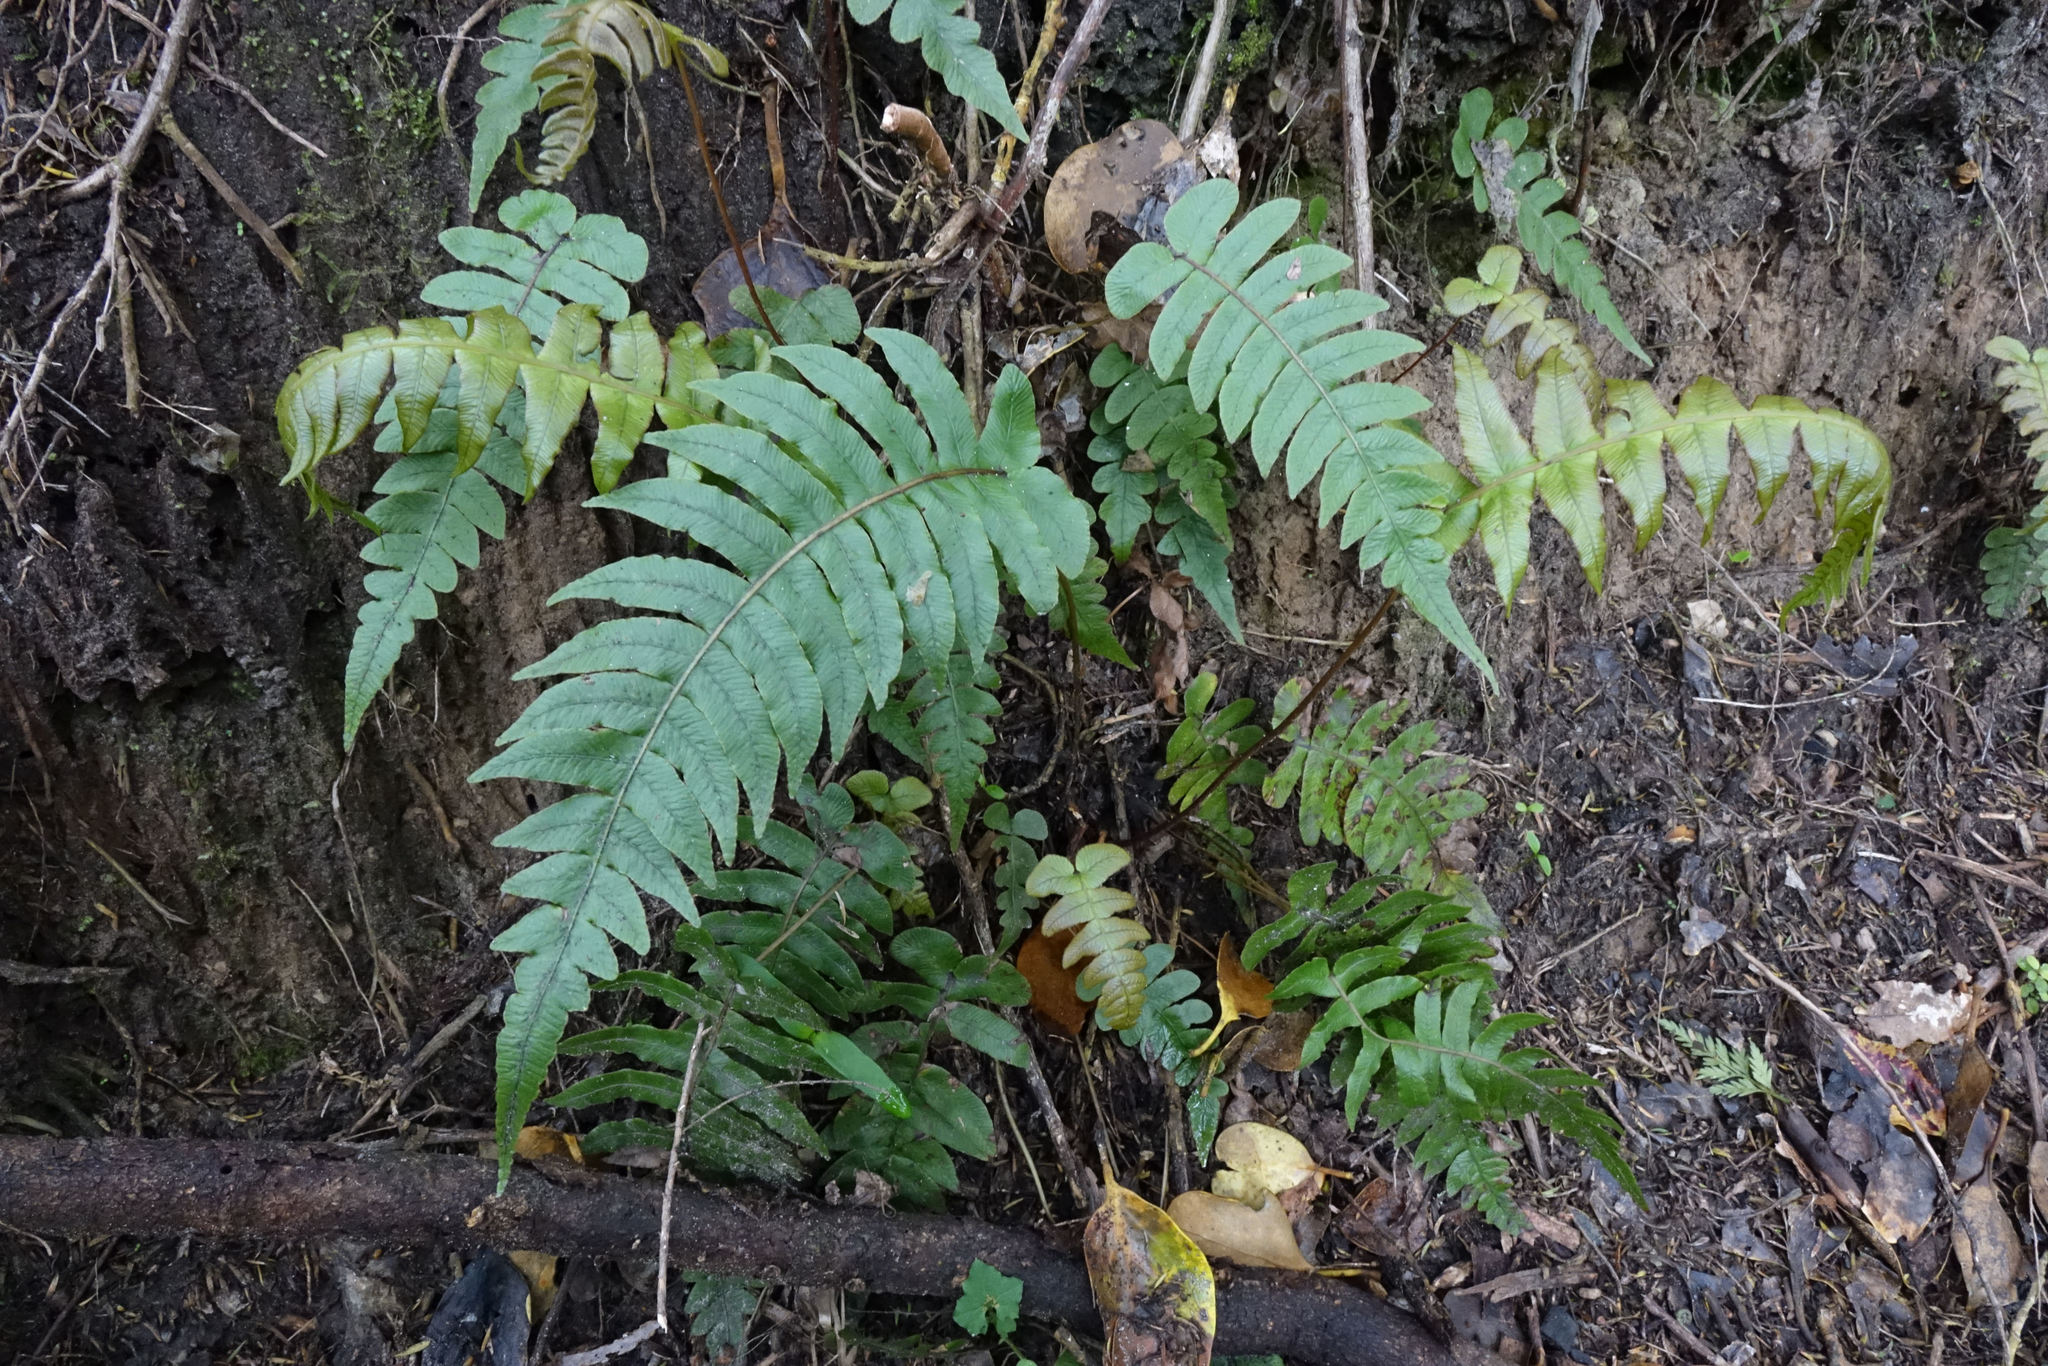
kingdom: Plantae
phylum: Tracheophyta
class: Polypodiopsida
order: Polypodiales
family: Blechnaceae
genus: Cranfillia
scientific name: Cranfillia vulcanica
